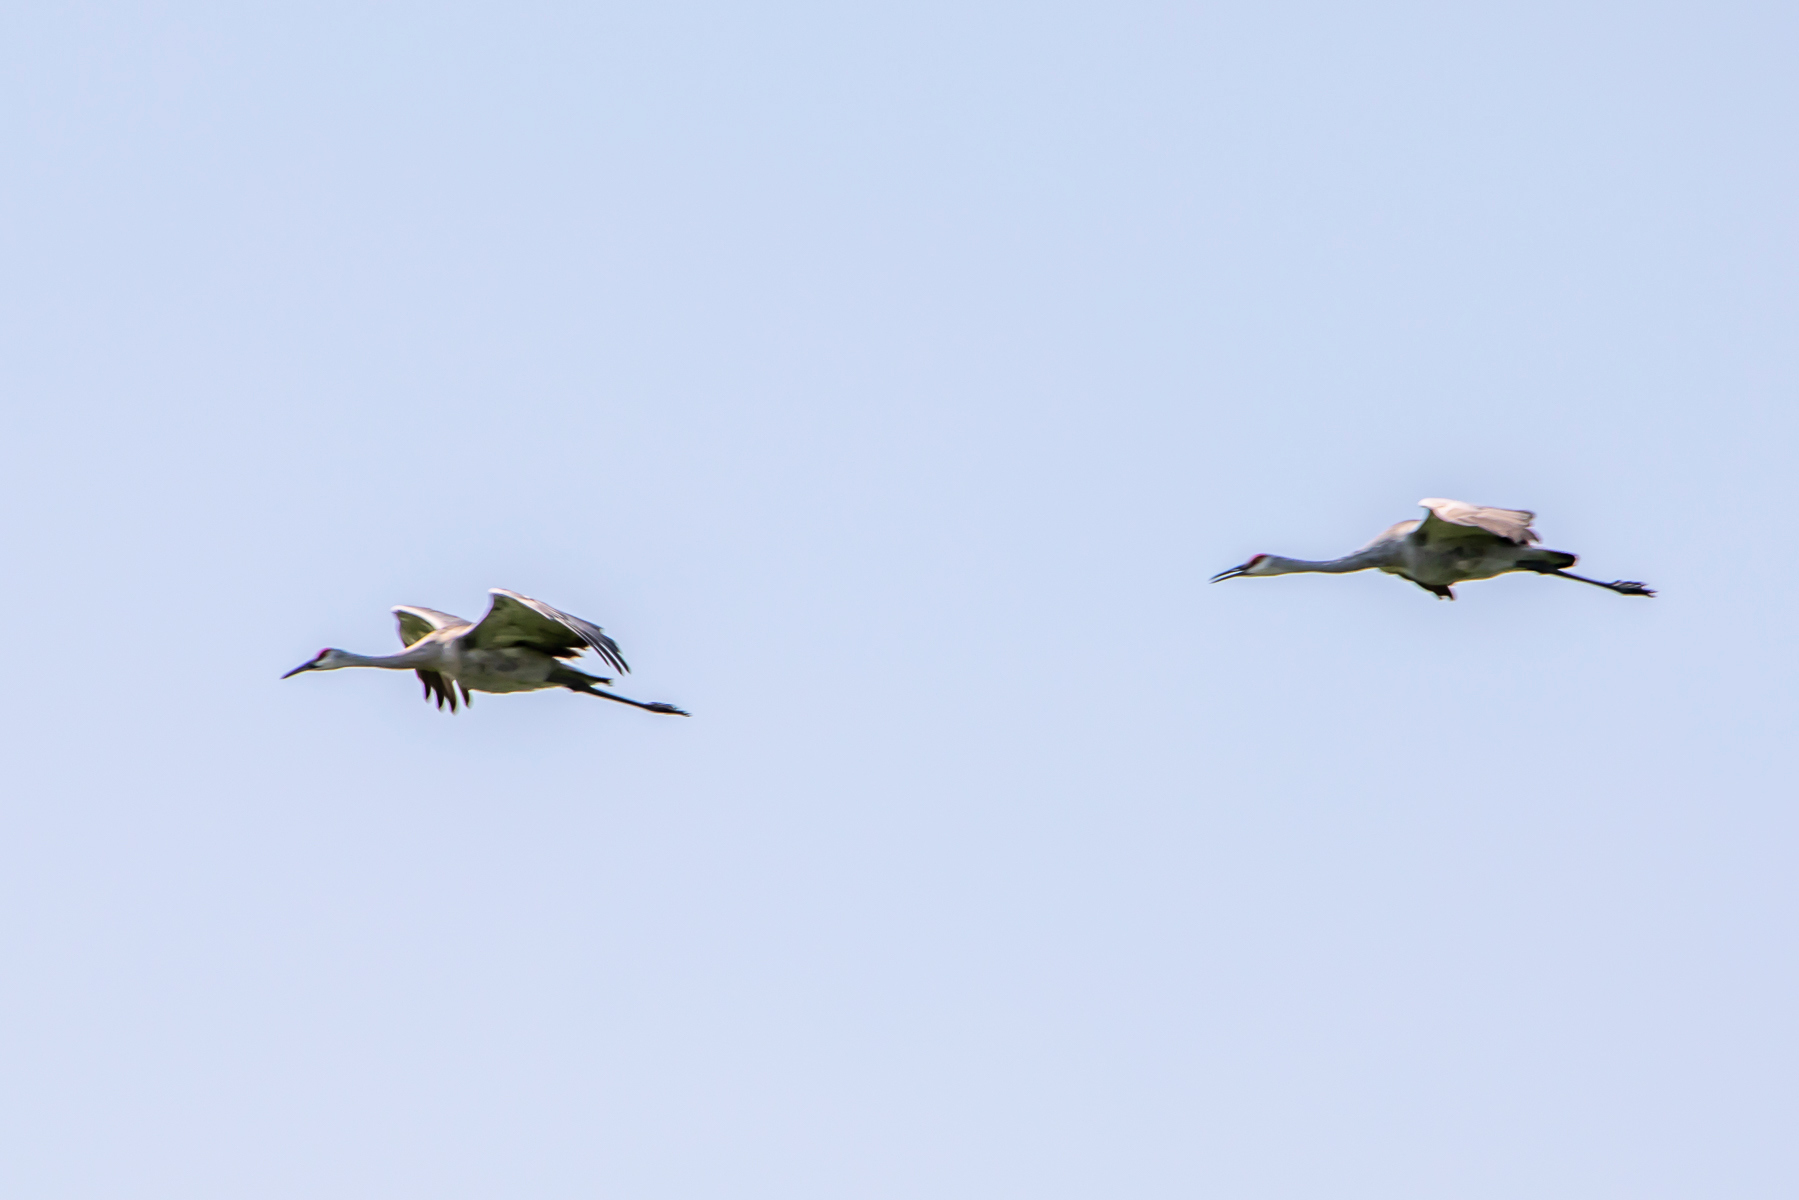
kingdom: Animalia
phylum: Chordata
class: Aves
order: Gruiformes
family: Gruidae
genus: Grus
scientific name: Grus canadensis
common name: Sandhill crane
